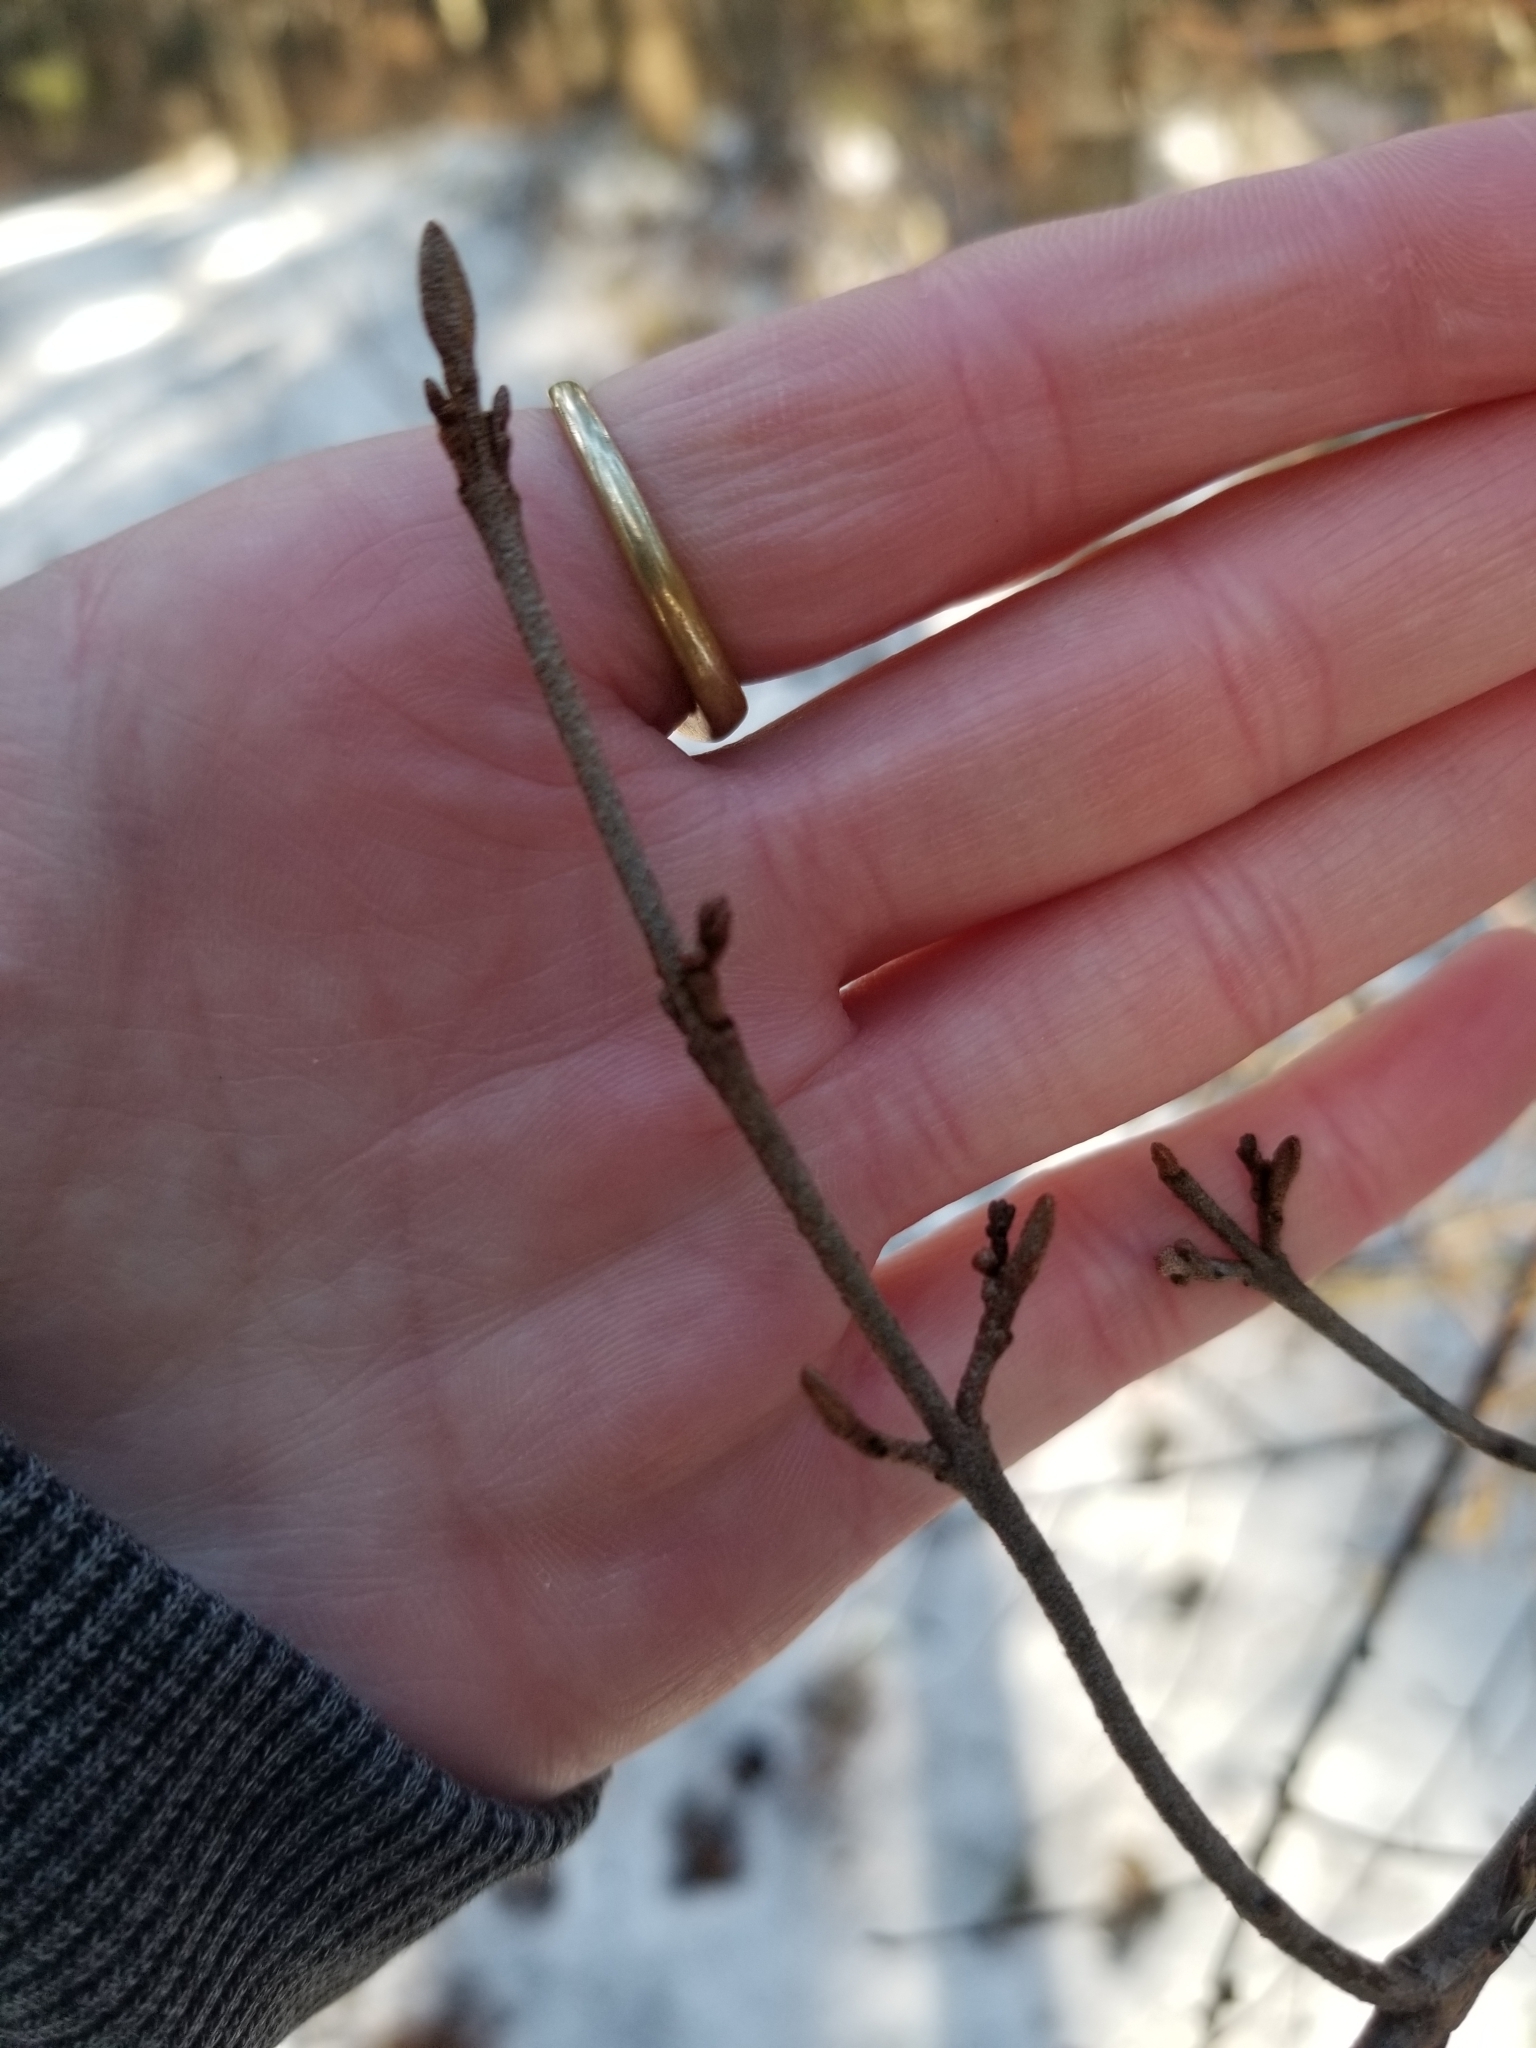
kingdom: Plantae
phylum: Tracheophyta
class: Magnoliopsida
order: Rosales
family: Elaeagnaceae
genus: Shepherdia
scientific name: Shepherdia canadensis
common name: Soapberry
